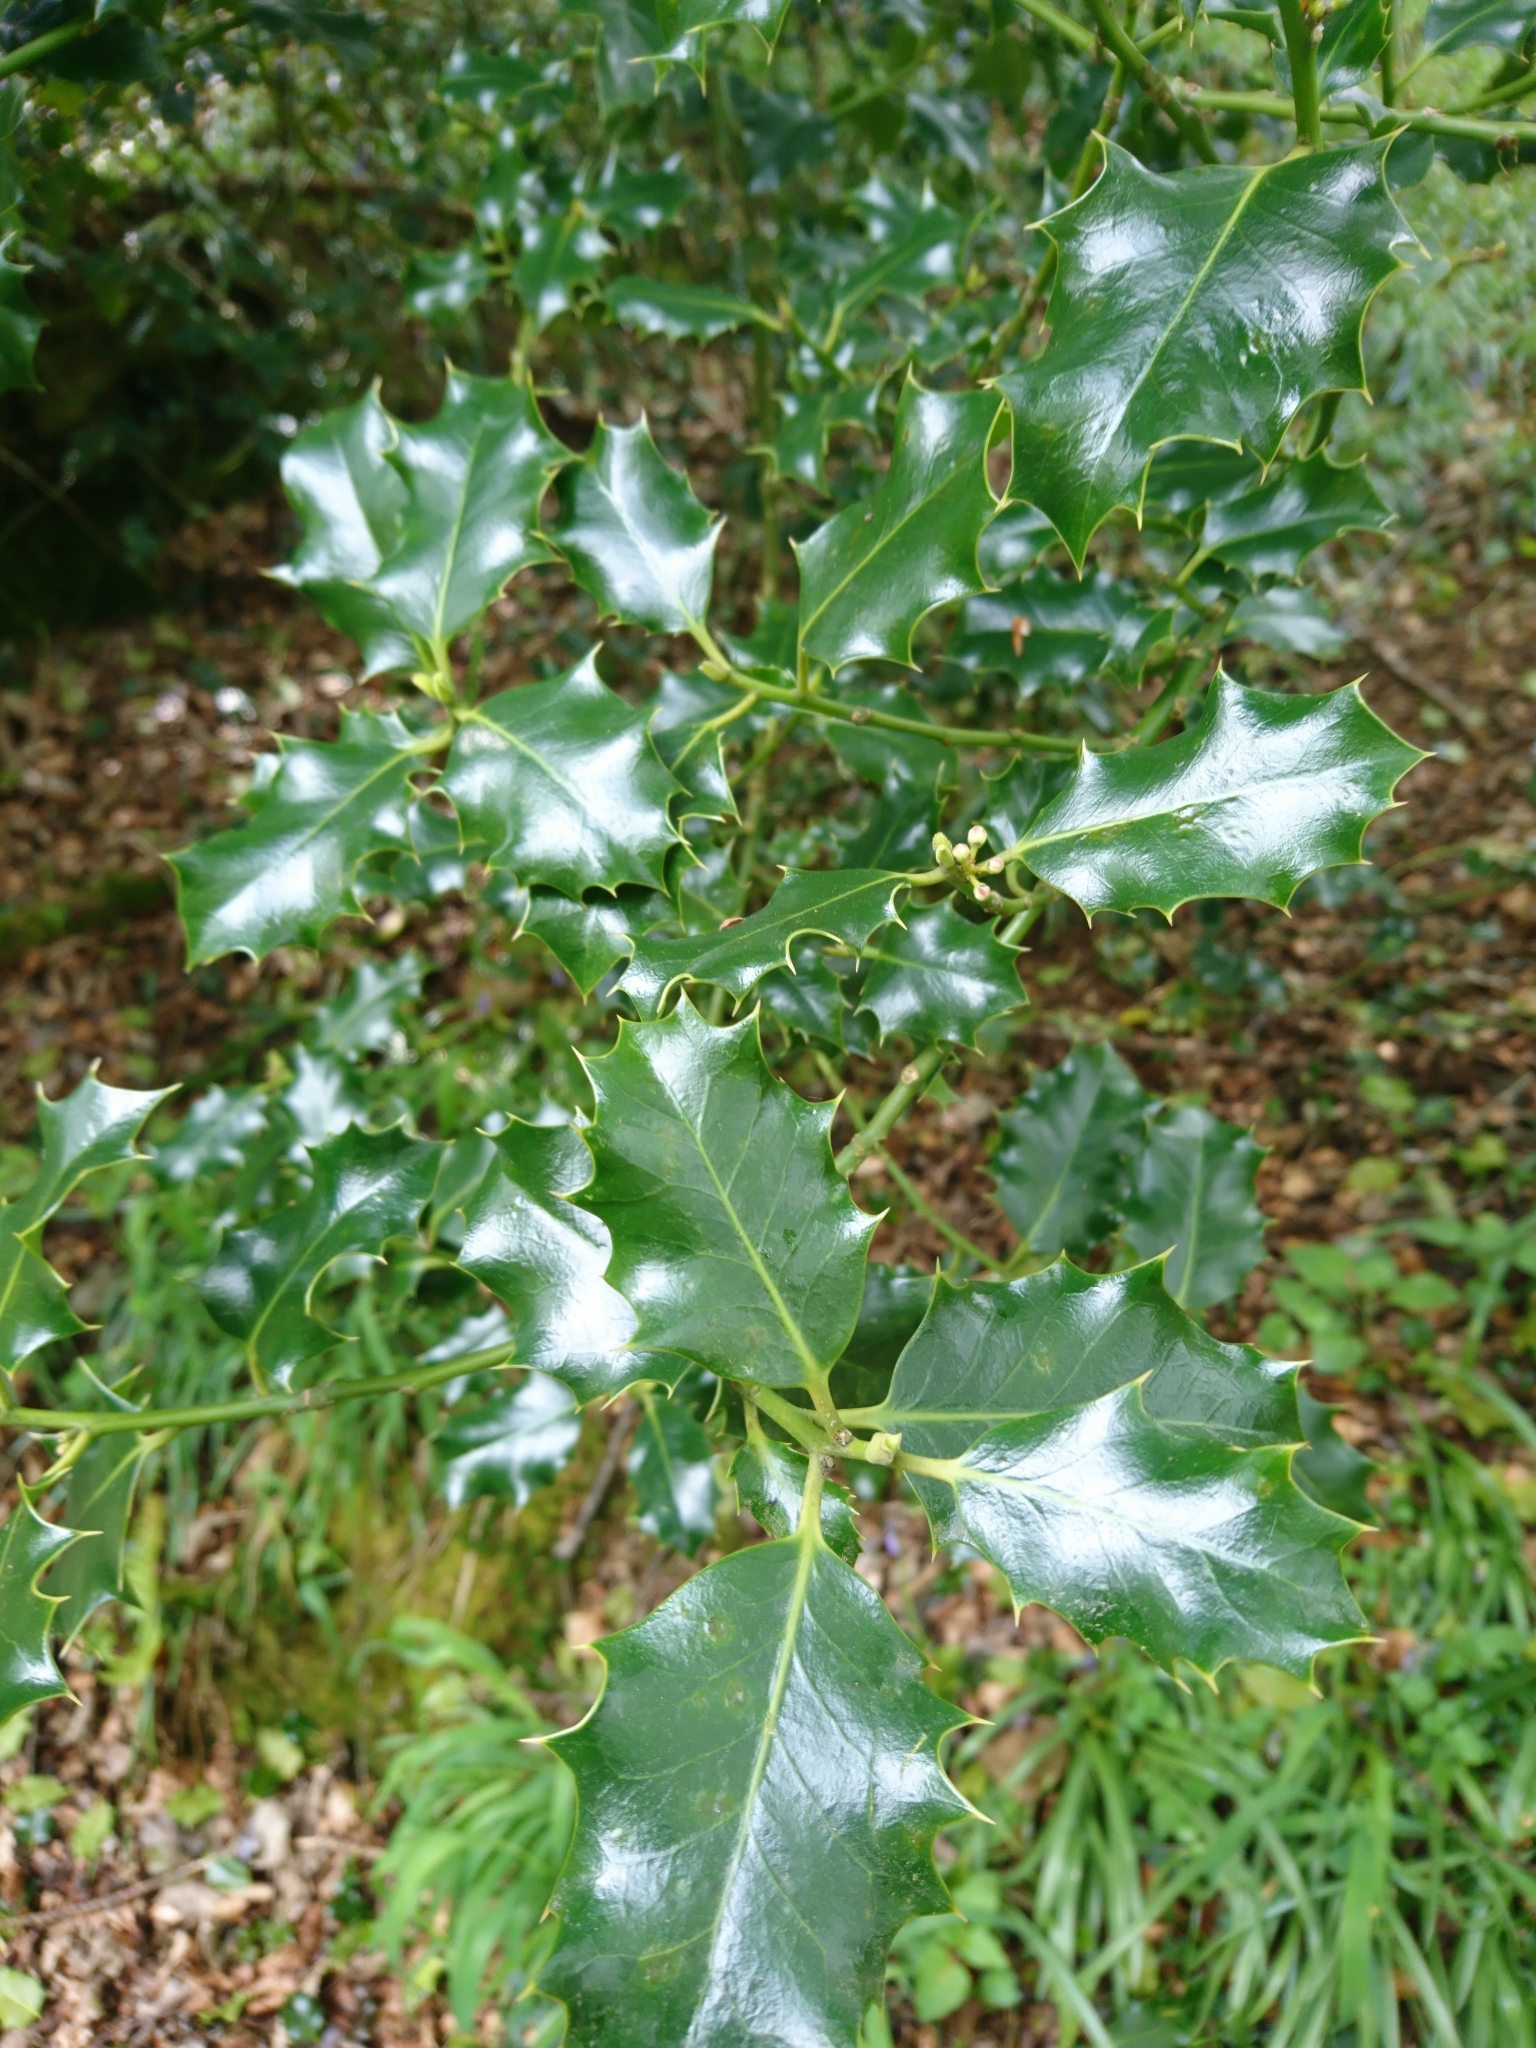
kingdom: Plantae
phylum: Tracheophyta
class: Magnoliopsida
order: Aquifoliales
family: Aquifoliaceae
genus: Ilex
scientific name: Ilex aquifolium
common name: English holly
